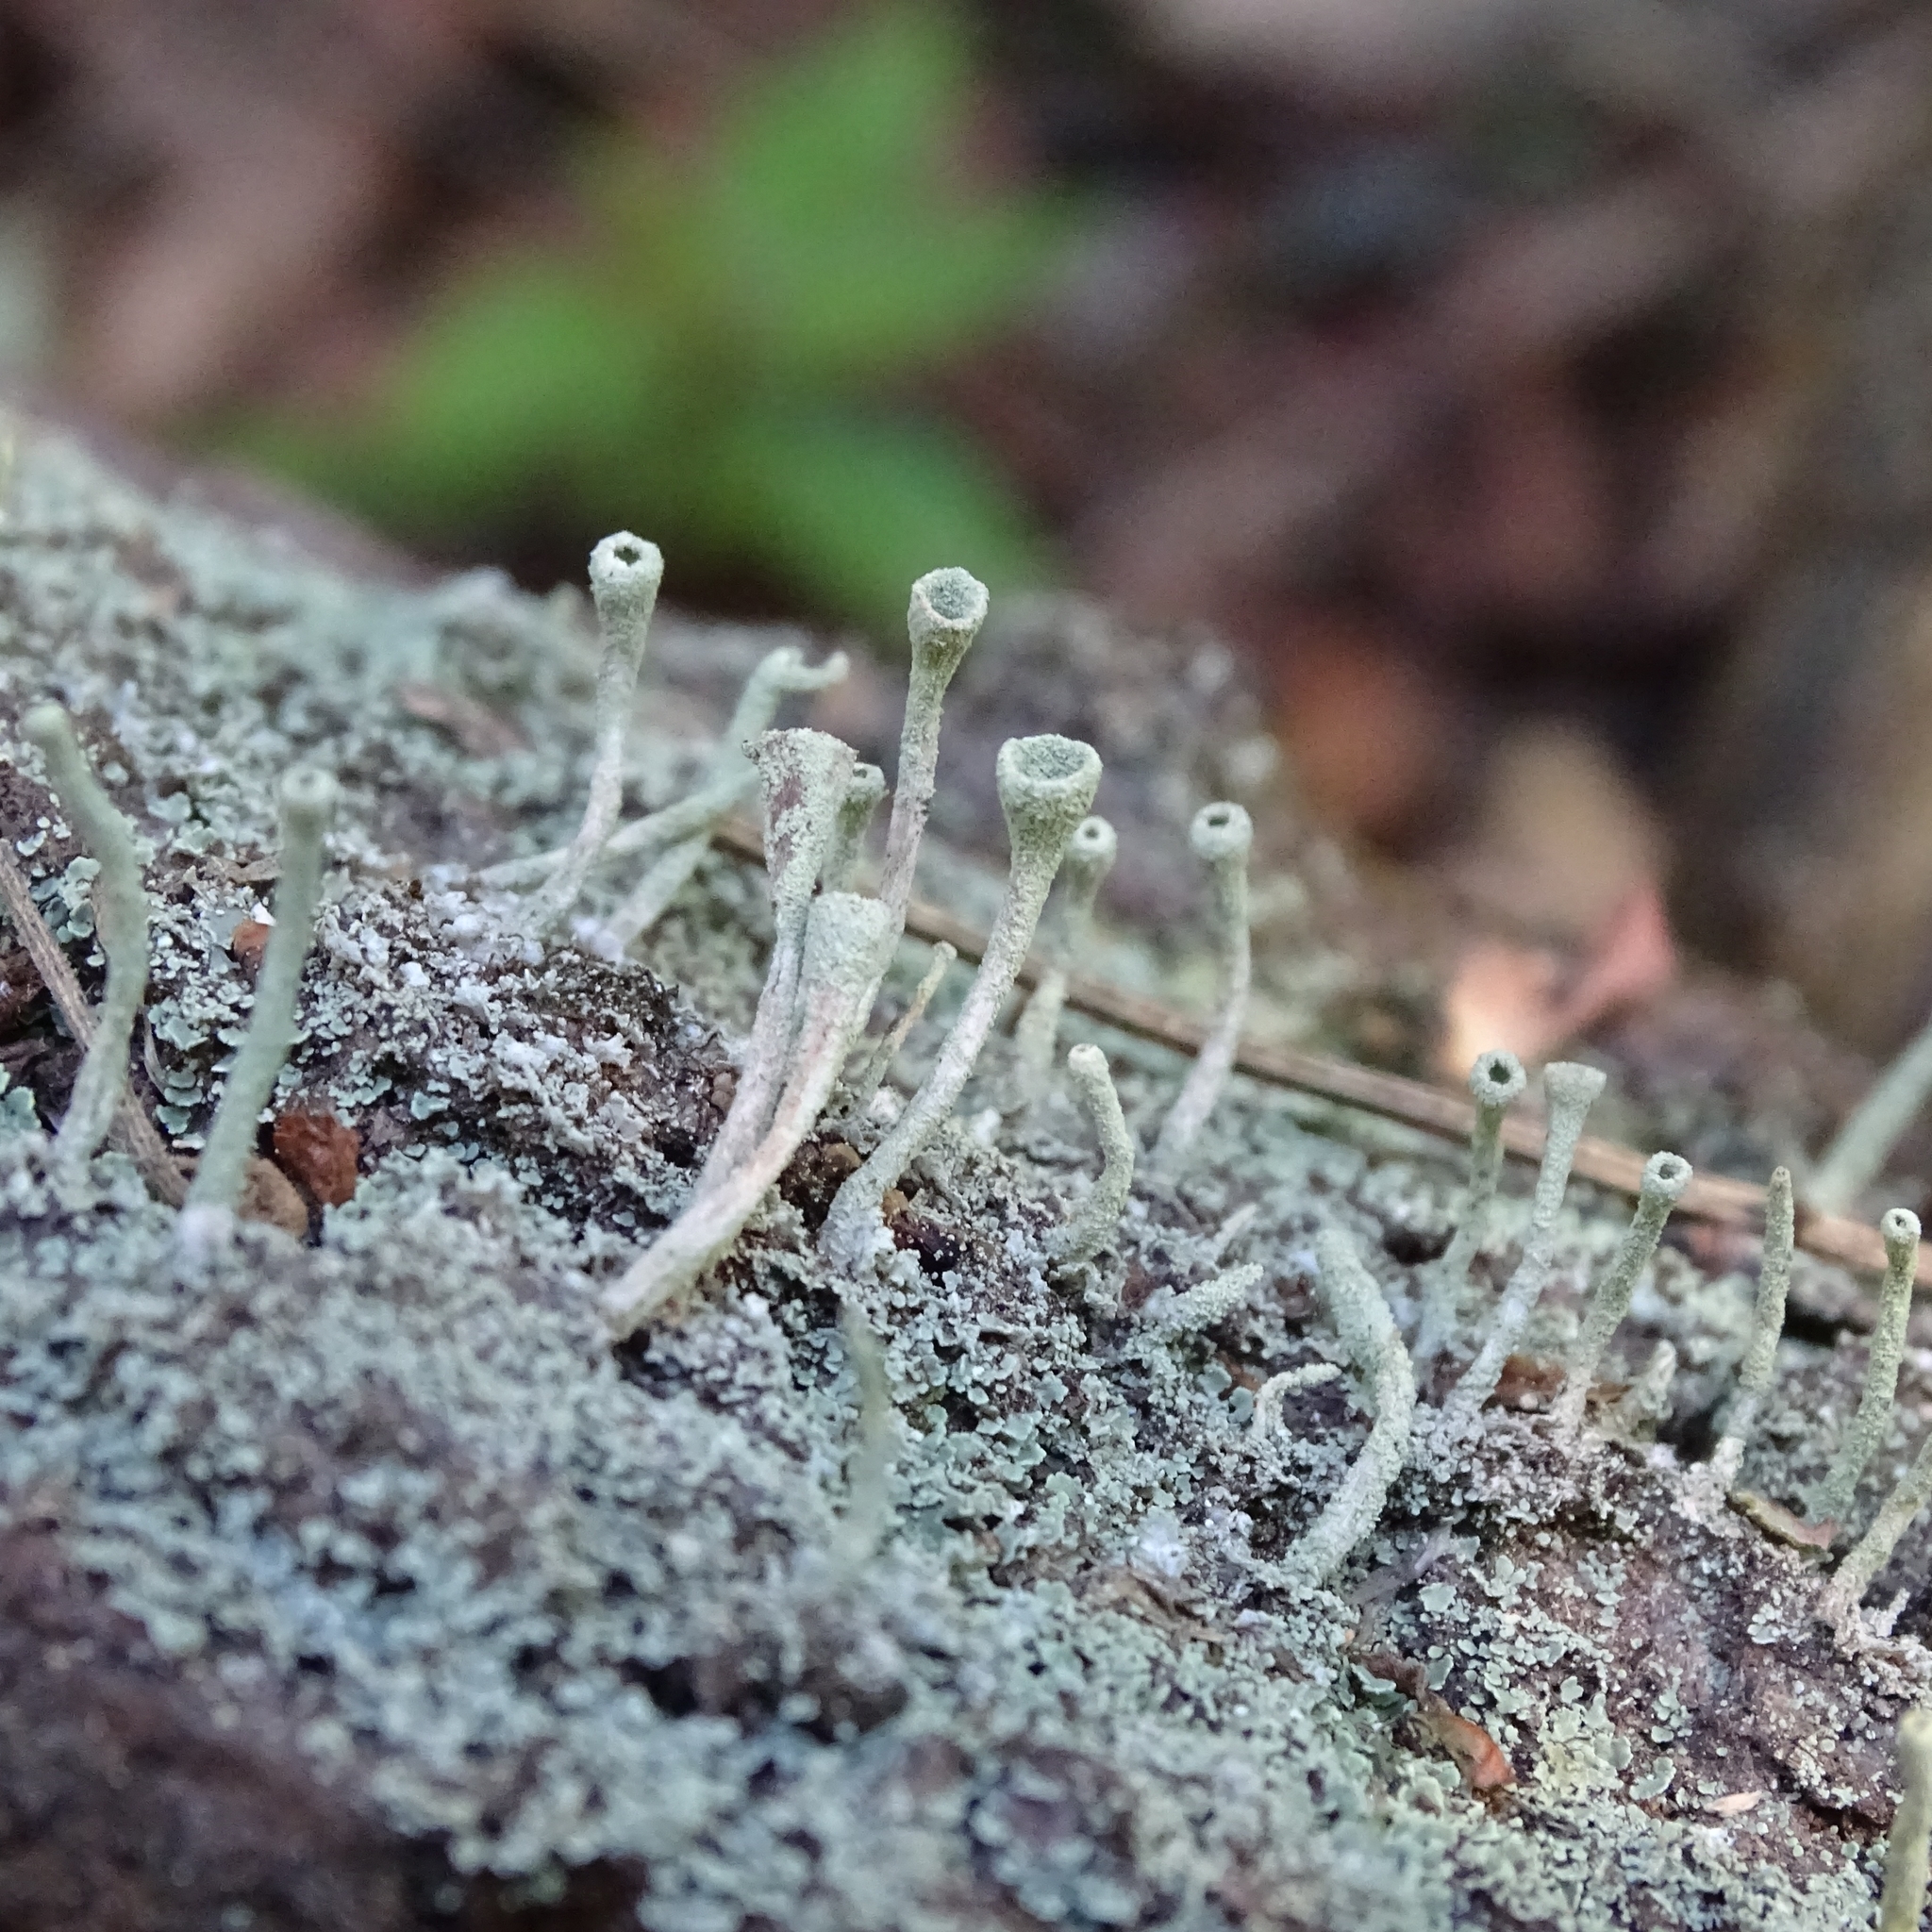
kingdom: Fungi
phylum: Ascomycota
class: Lecanoromycetes
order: Lecanorales
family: Cladoniaceae
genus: Cladonia
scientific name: Cladonia fimbriata
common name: Powdered trumpet lichen
